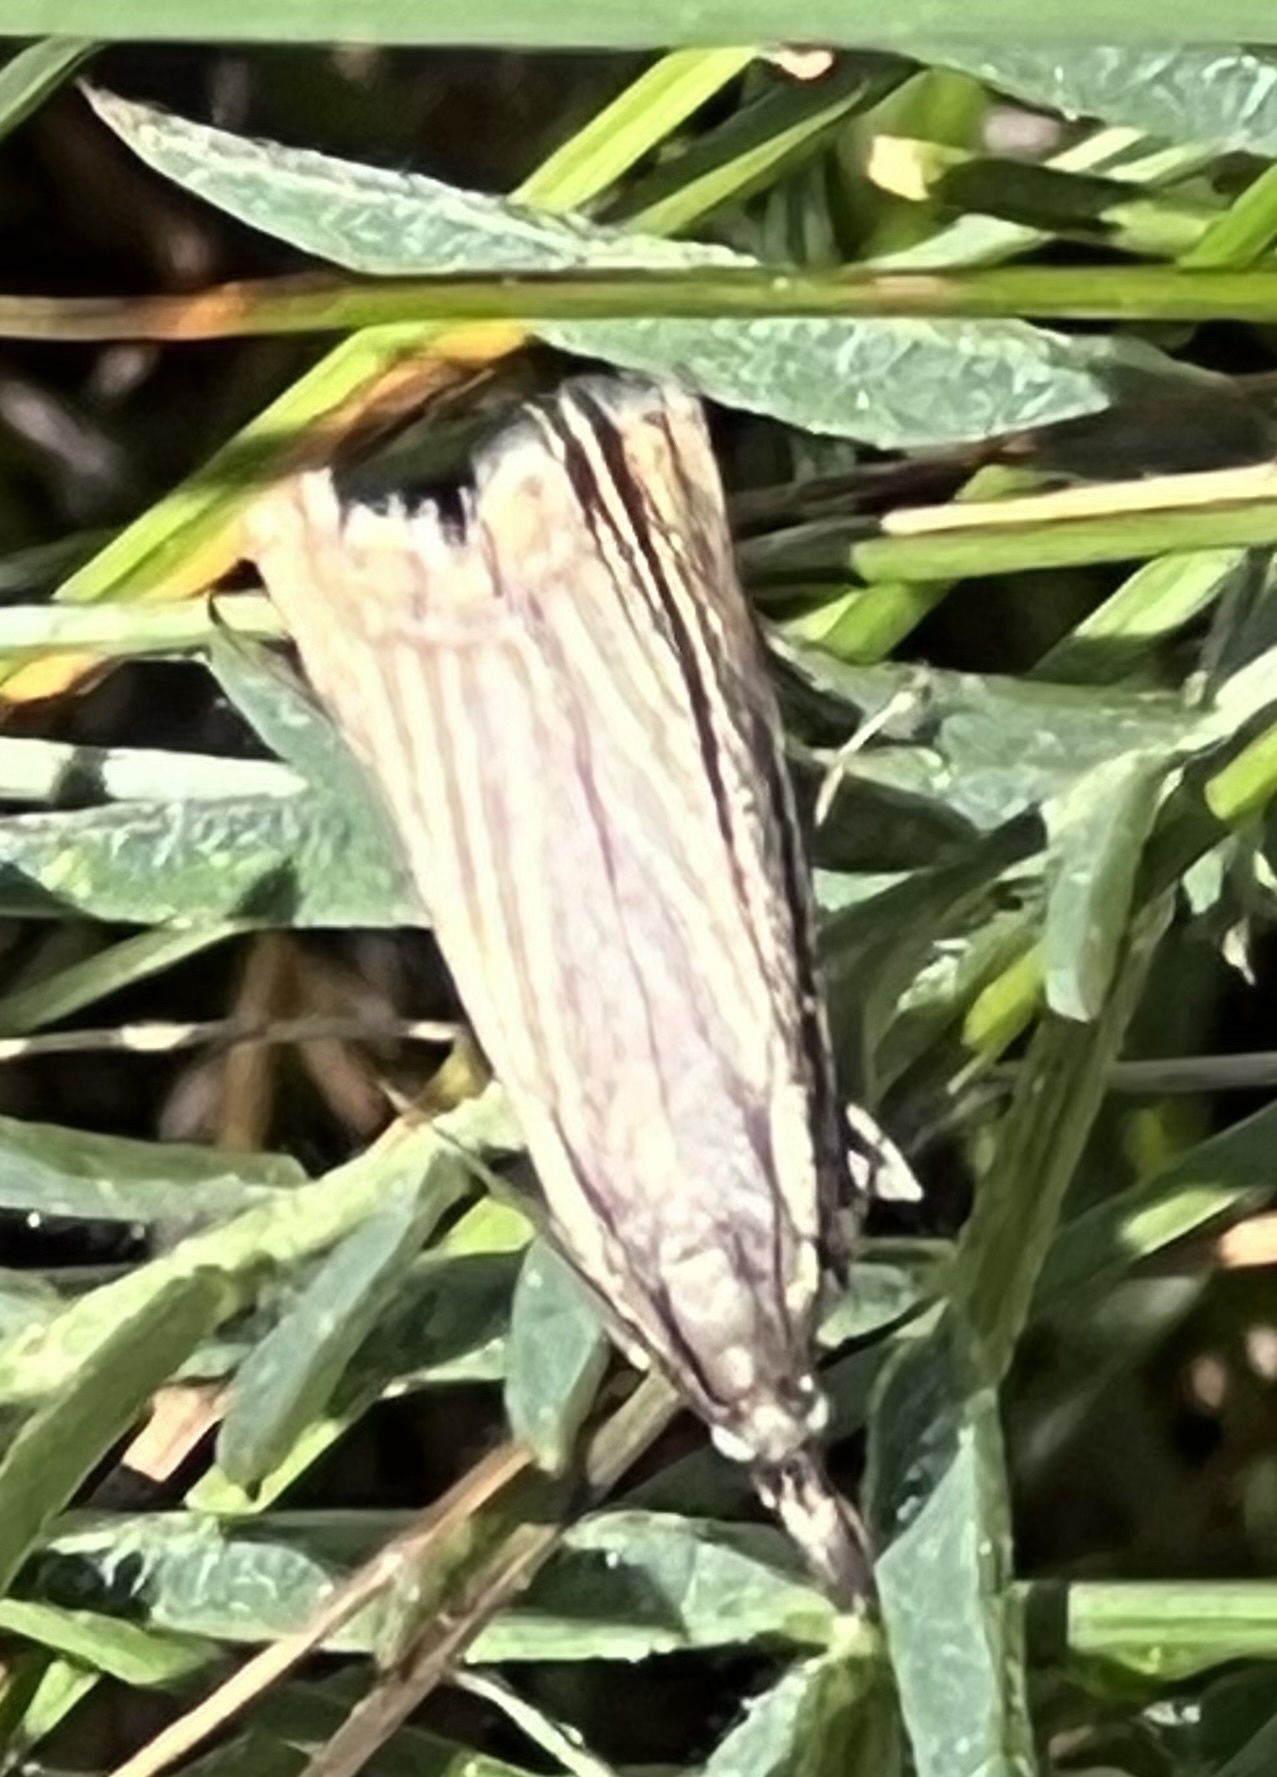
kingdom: Animalia
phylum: Arthropoda
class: Insecta
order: Lepidoptera
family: Crambidae
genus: Chrysoteuchia
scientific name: Chrysoteuchia culmella
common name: Garden grass-veneer
